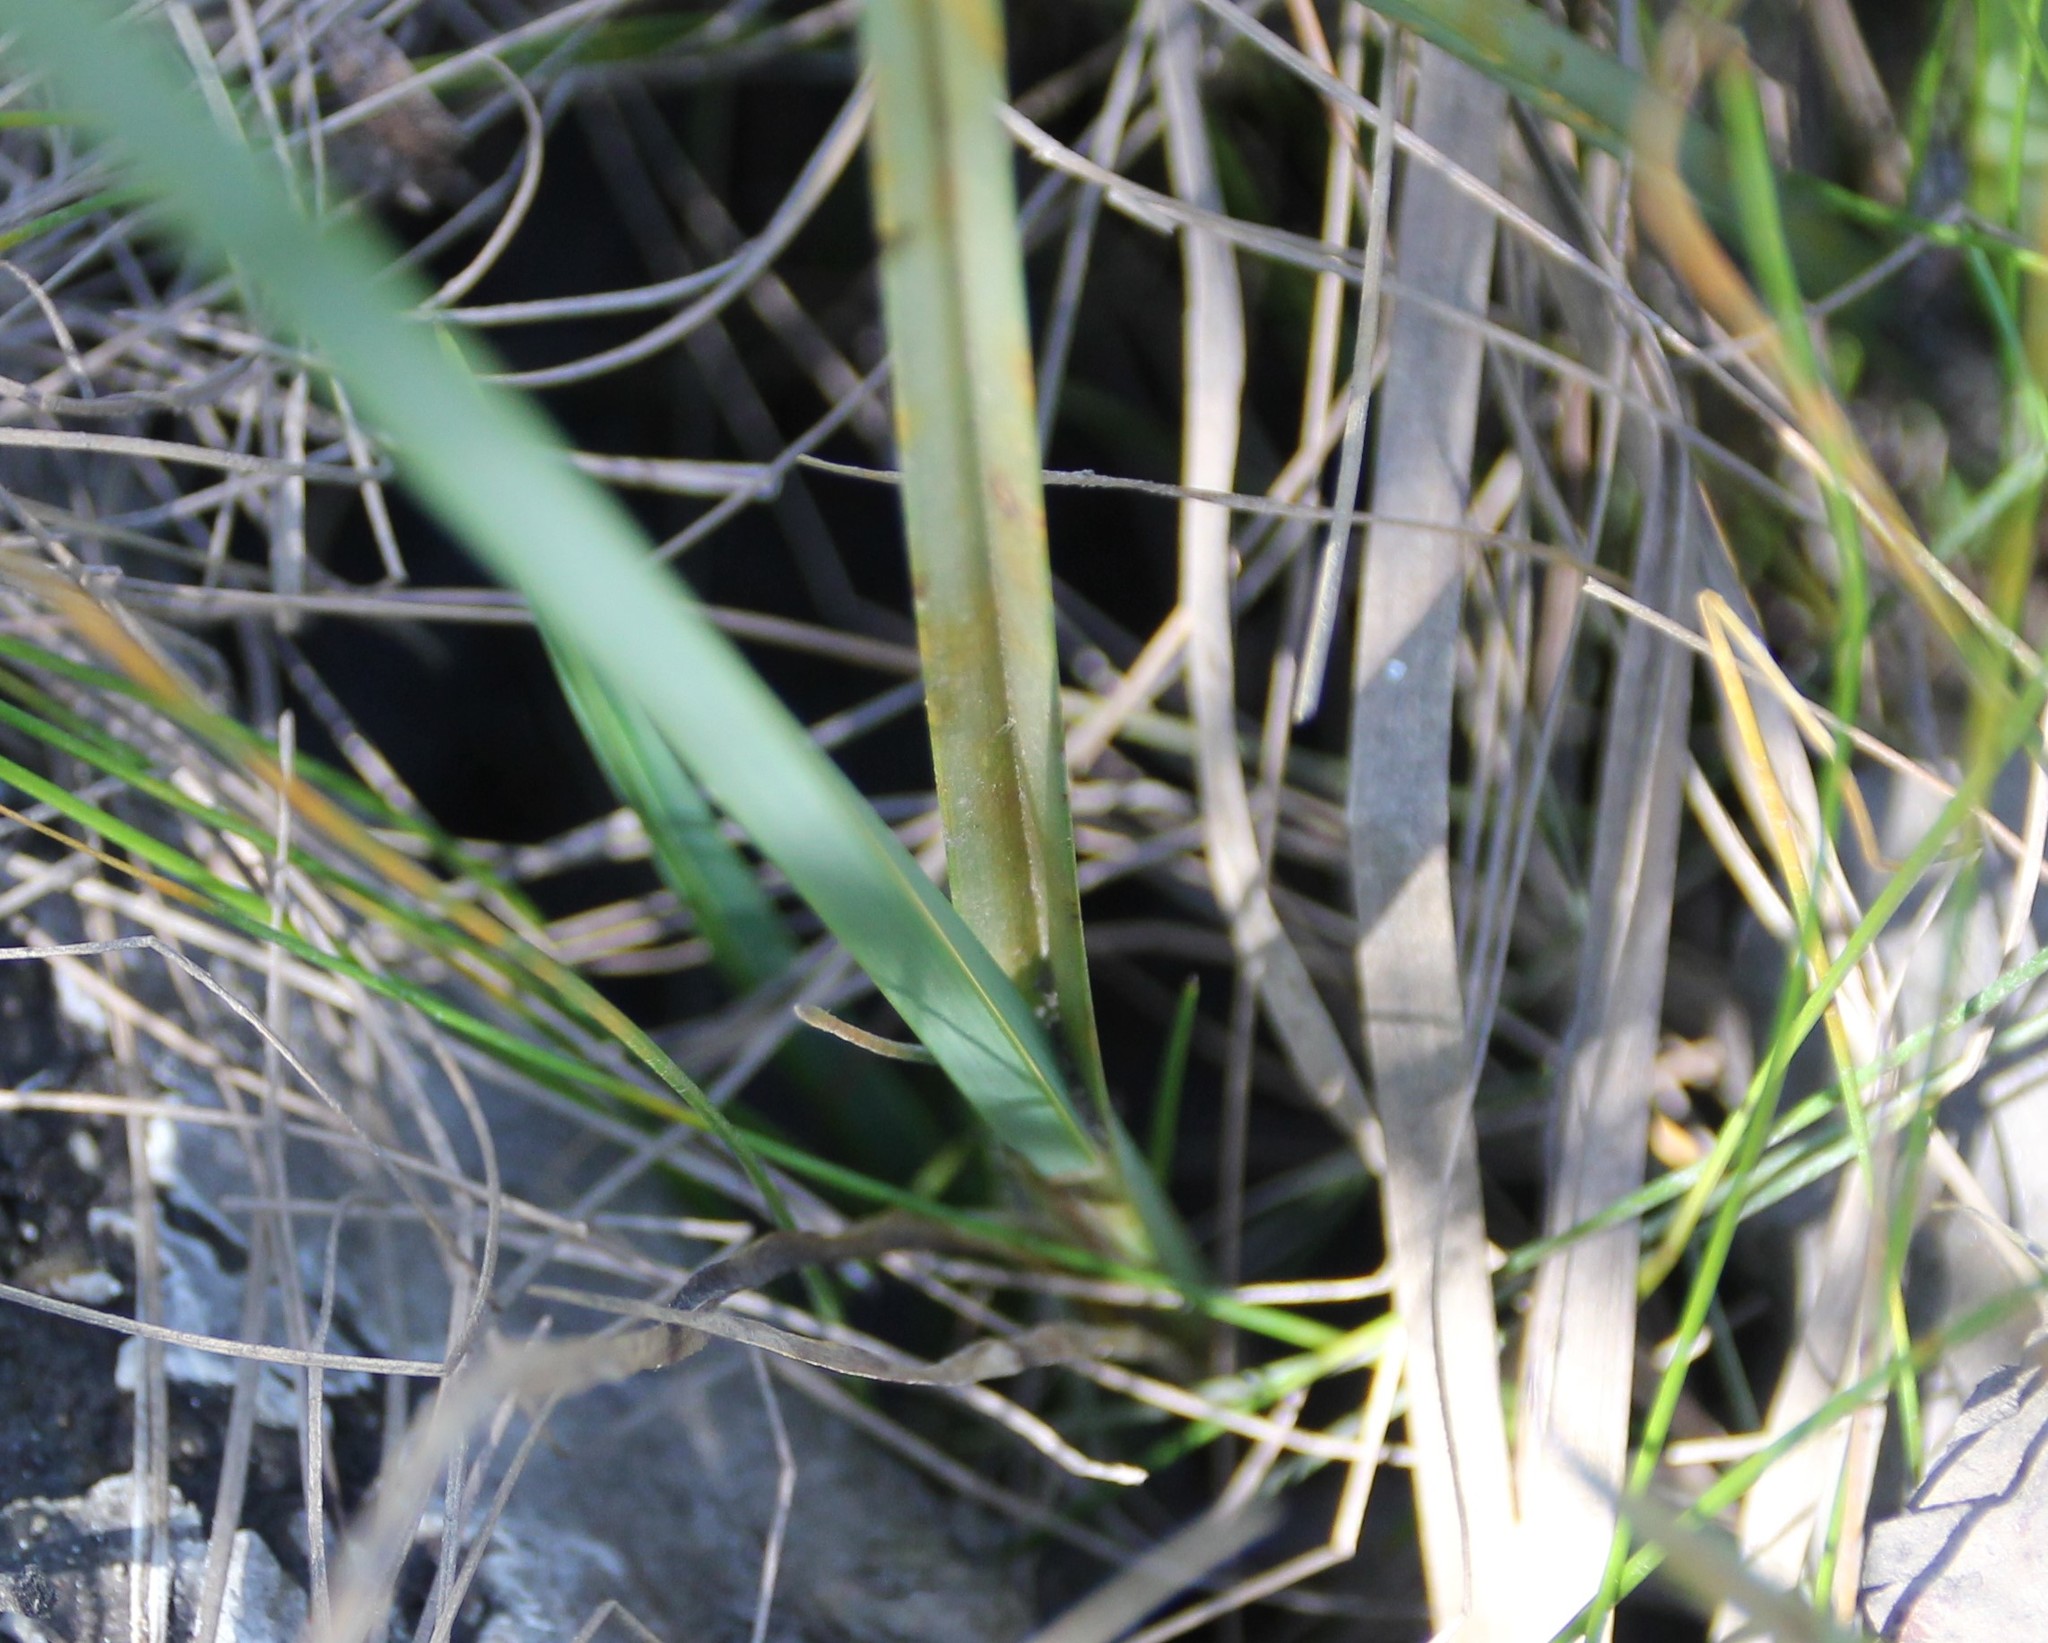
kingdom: Plantae
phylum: Tracheophyta
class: Liliopsida
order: Poales
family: Cyperaceae
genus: Schoenoplectus
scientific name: Schoenoplectus pungens
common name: Sharp club-rush
